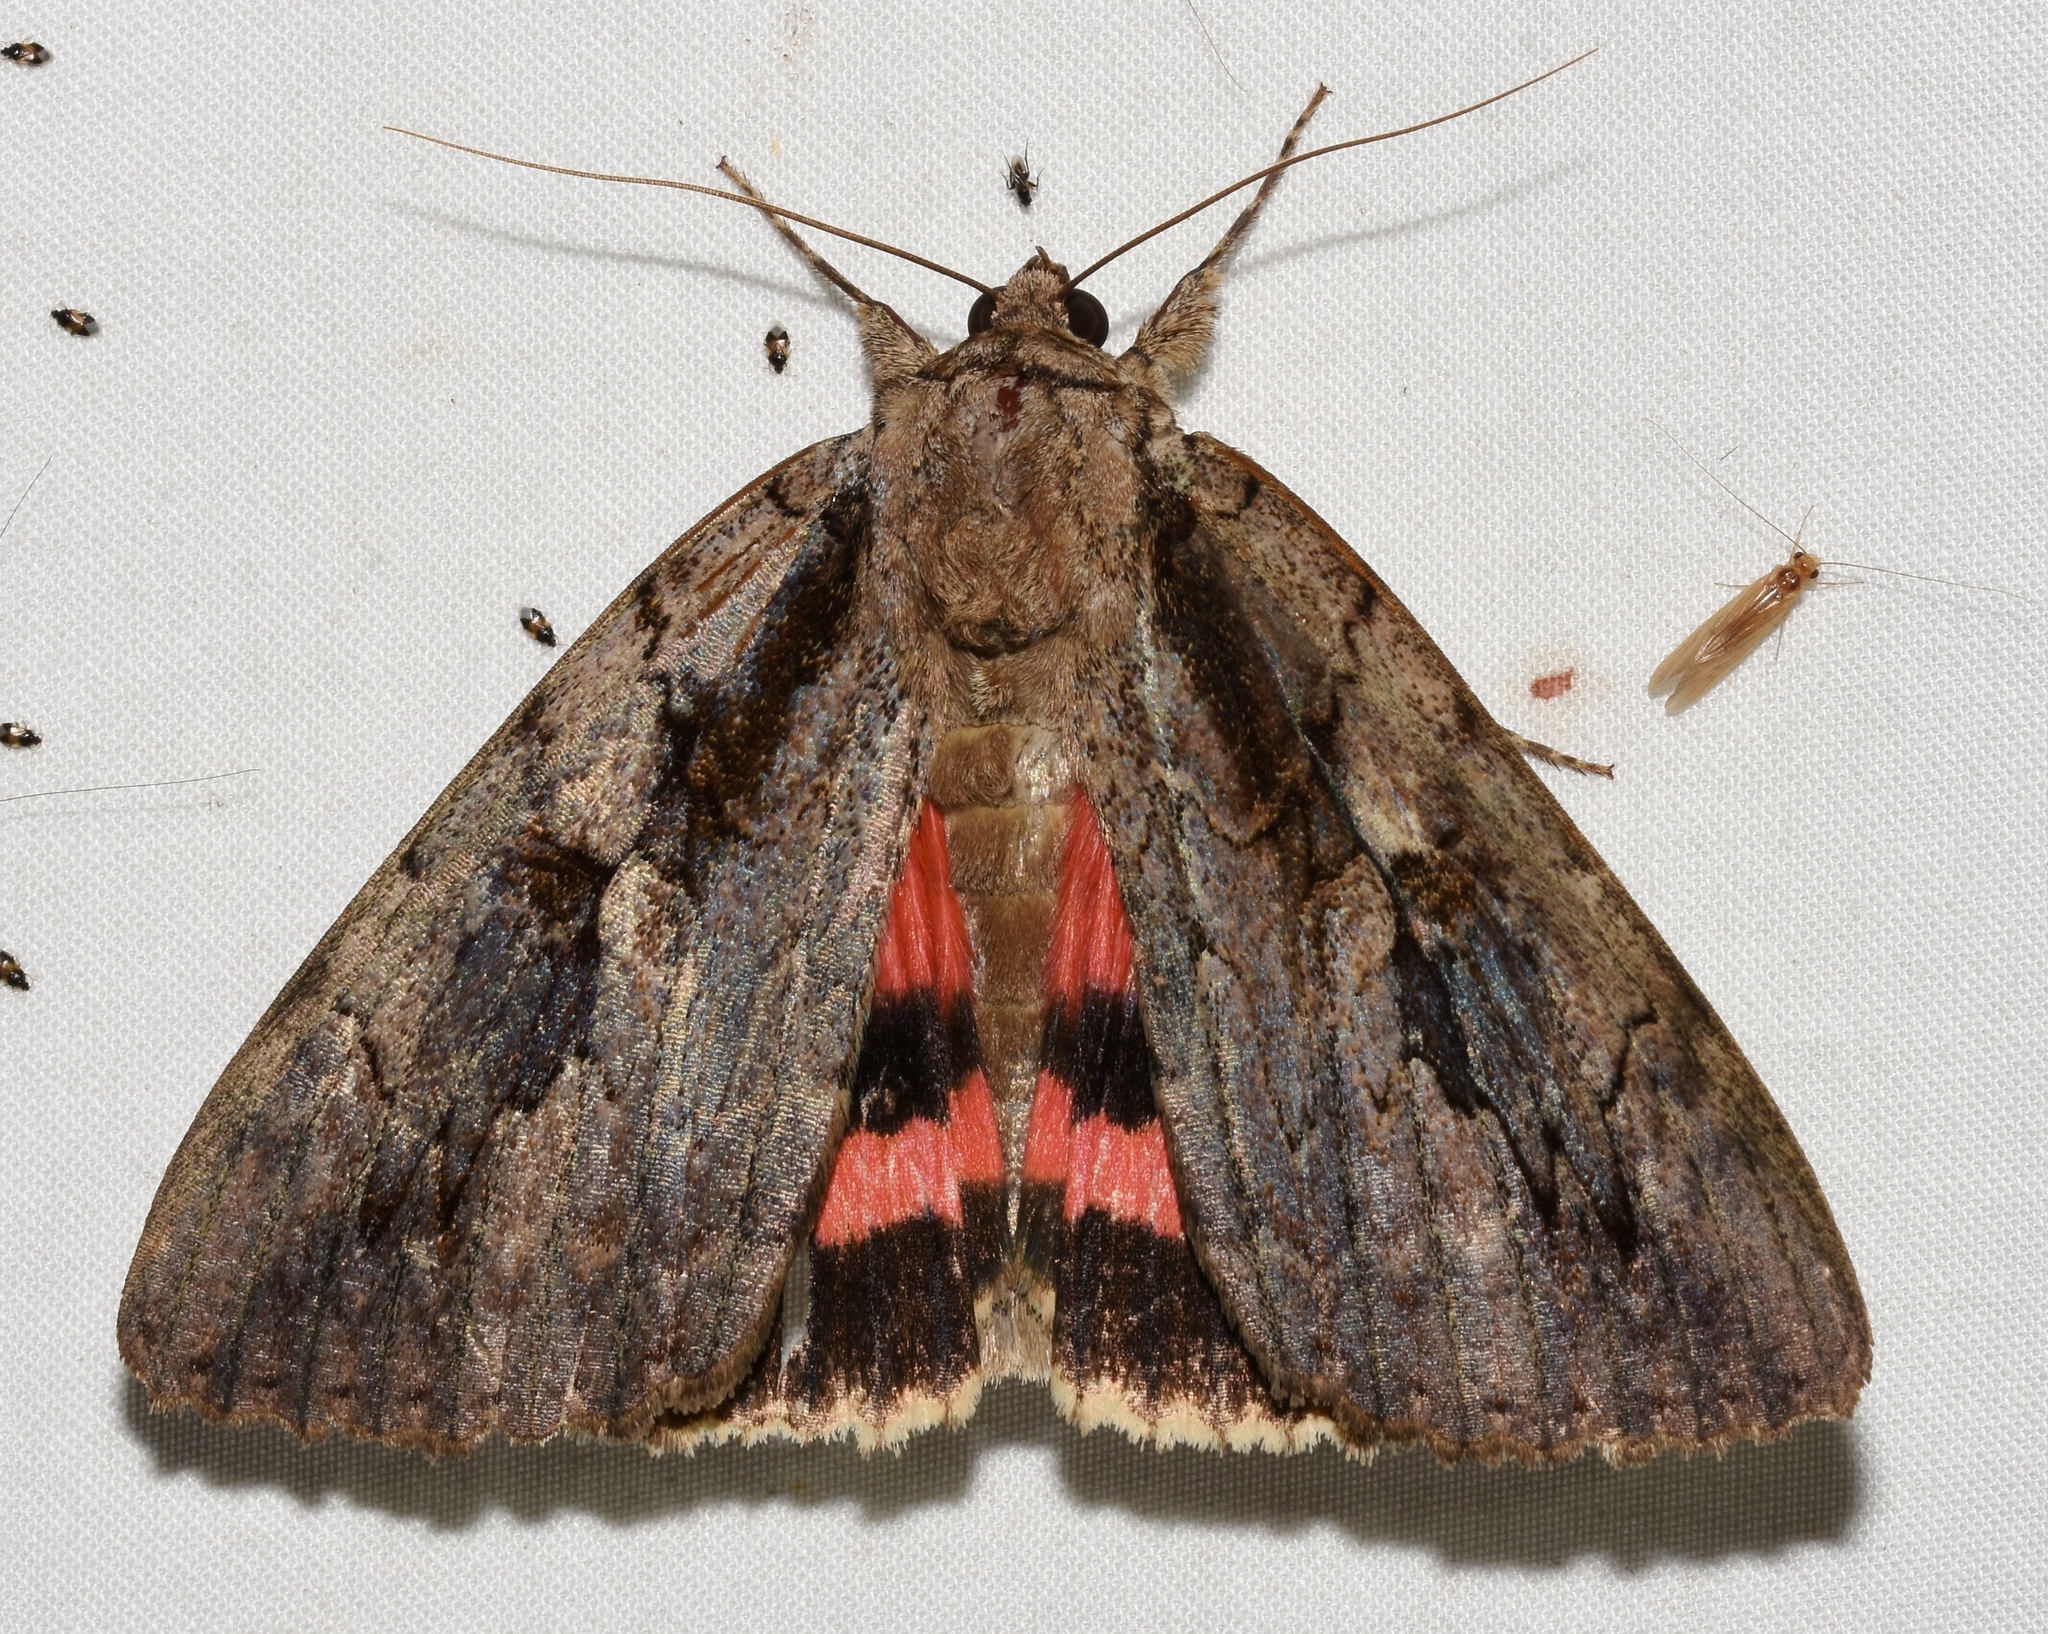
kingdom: Animalia
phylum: Arthropoda
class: Insecta
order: Lepidoptera
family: Erebidae
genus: Catocala
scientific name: Catocala amatrix
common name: Sweetheart underwing
